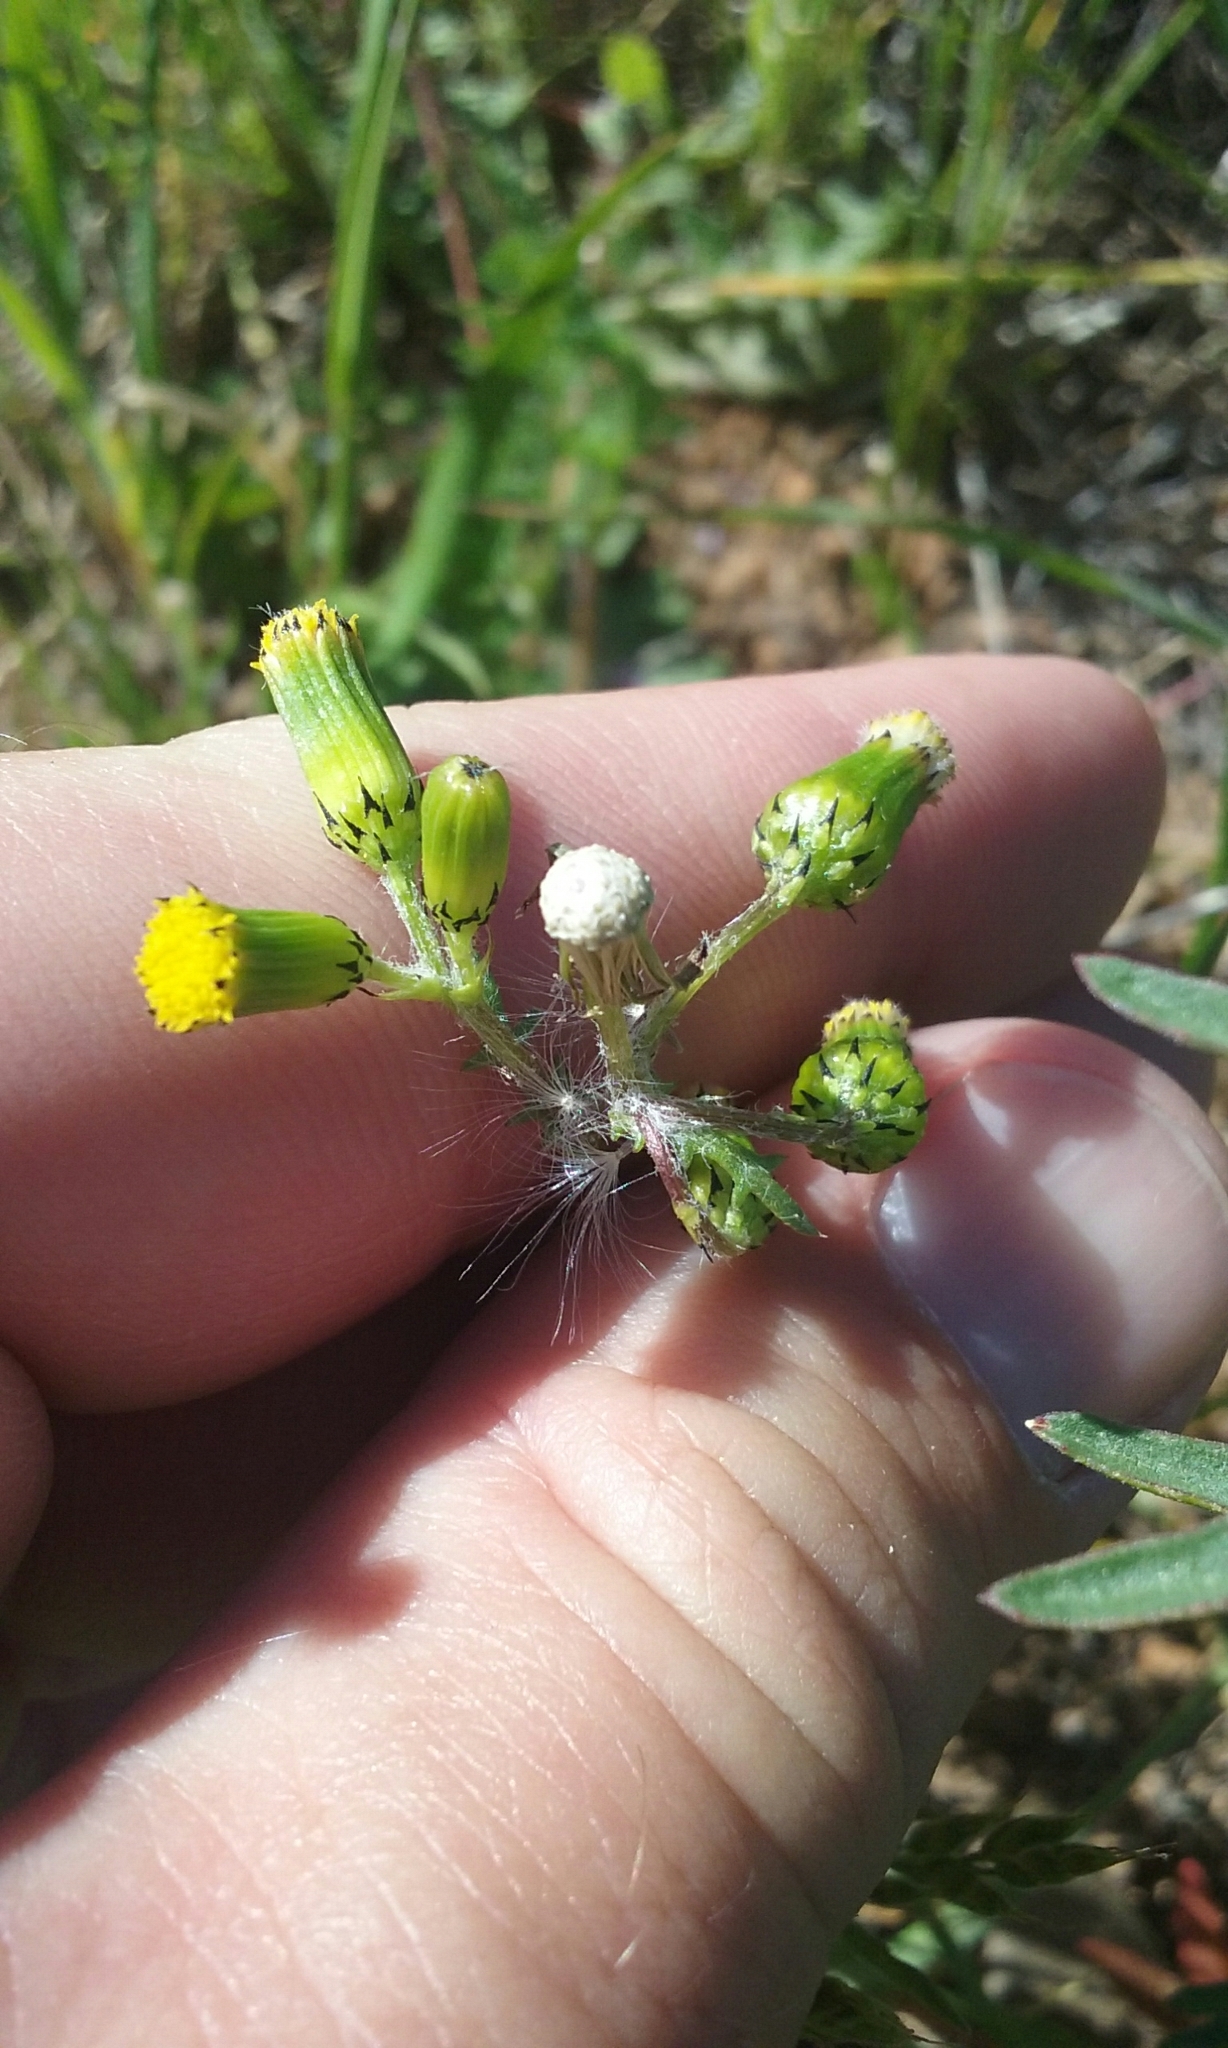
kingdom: Plantae
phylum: Tracheophyta
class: Magnoliopsida
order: Asterales
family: Asteraceae
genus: Senecio
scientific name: Senecio vulgaris
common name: Old-man-in-the-spring
